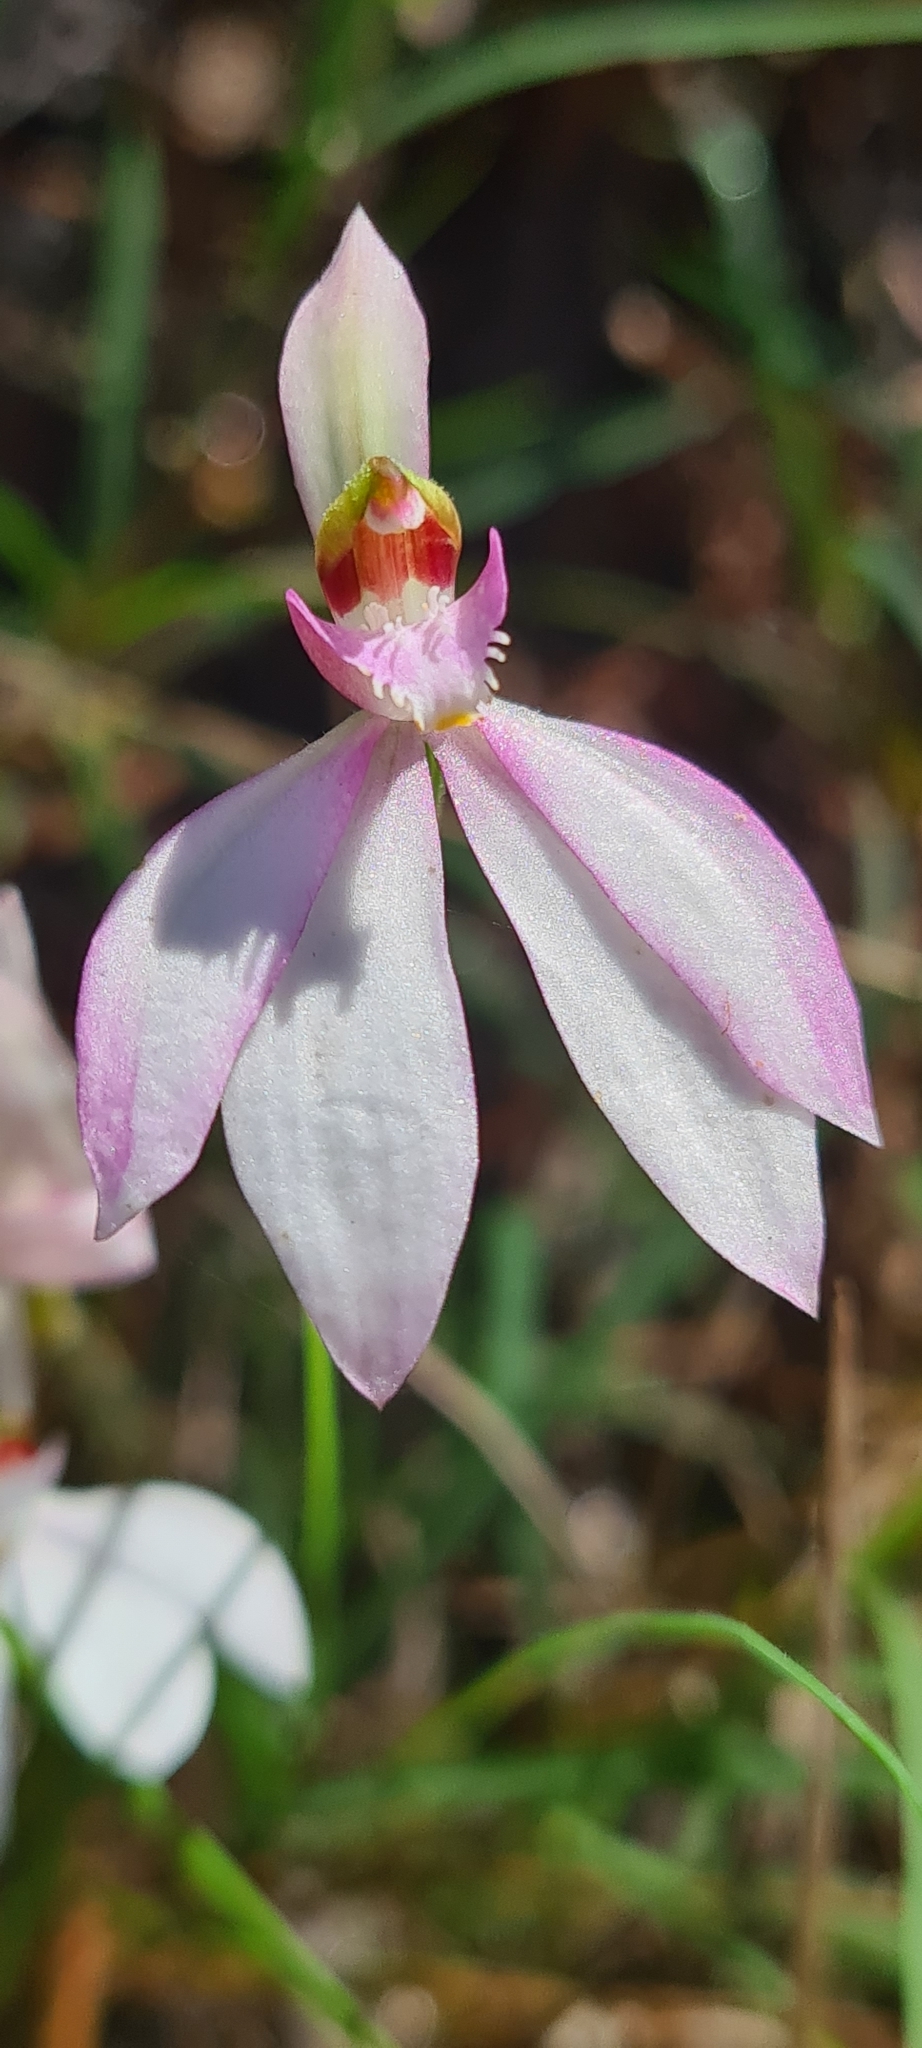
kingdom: Plantae
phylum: Tracheophyta
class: Liliopsida
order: Asparagales
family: Orchidaceae
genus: Caladenia
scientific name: Caladenia picta
